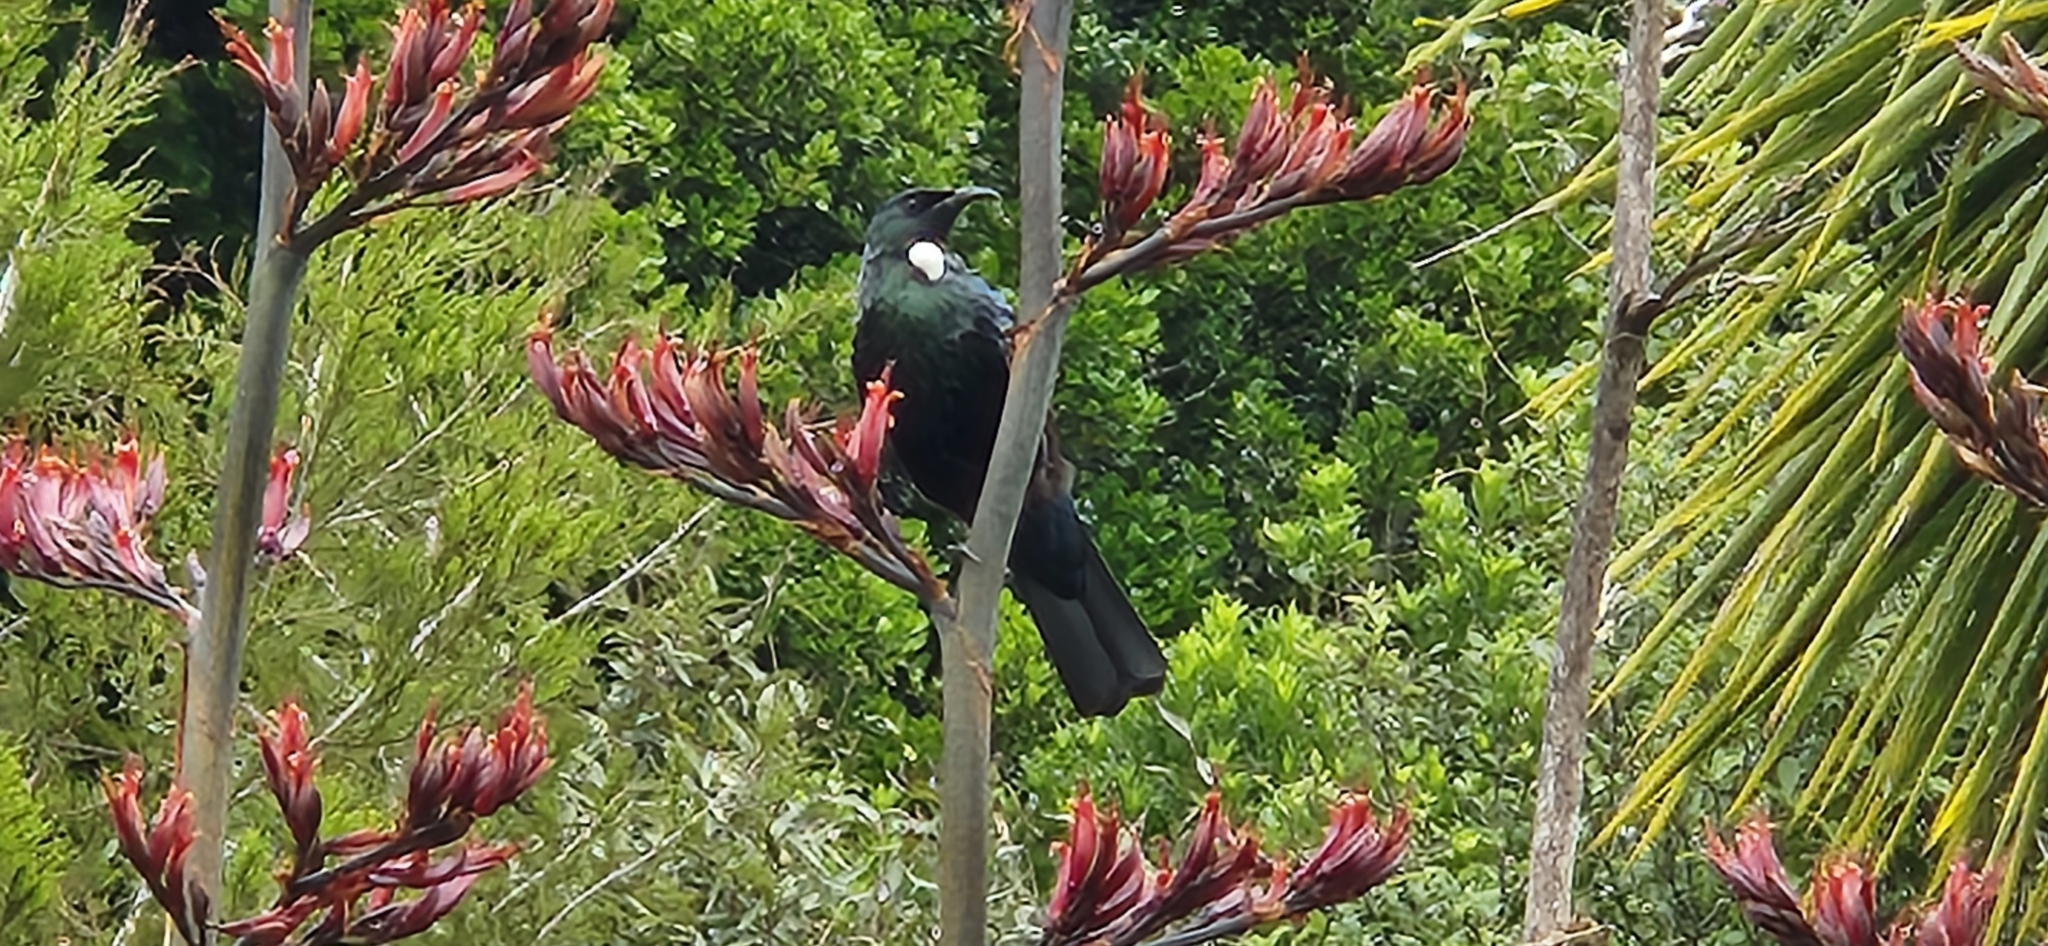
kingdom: Animalia
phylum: Chordata
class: Aves
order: Passeriformes
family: Meliphagidae
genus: Prosthemadera
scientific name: Prosthemadera novaeseelandiae
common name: Tui
